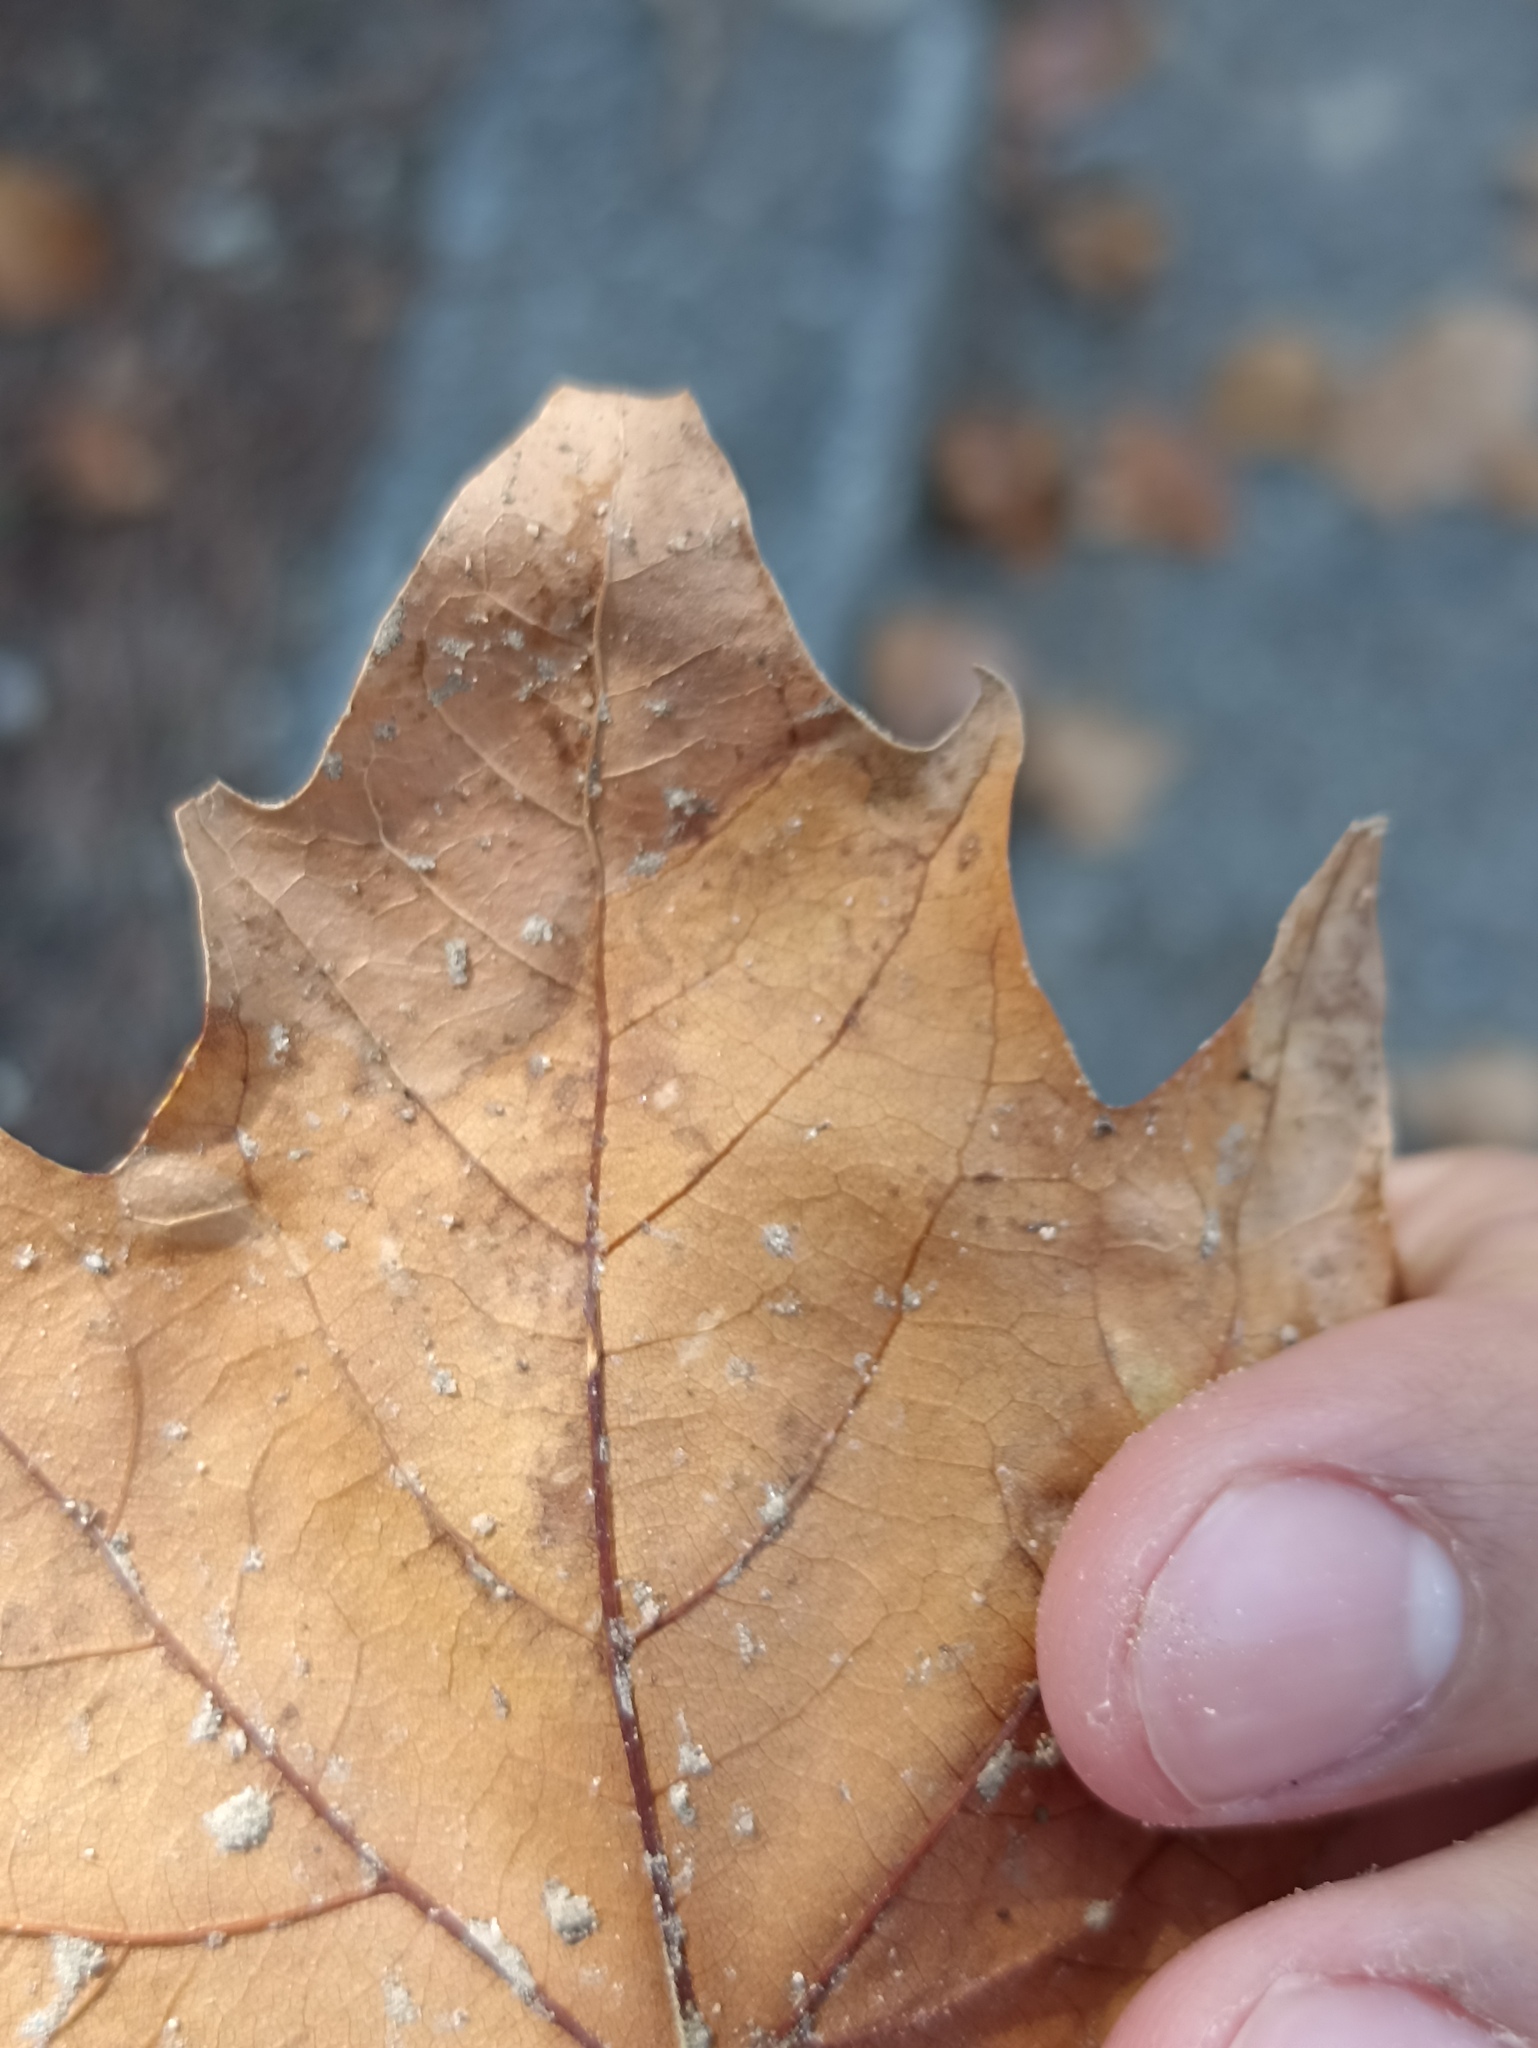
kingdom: Animalia
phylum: Arthropoda
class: Insecta
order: Lepidoptera
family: Nepticulidae
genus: Acalyptris
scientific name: Acalyptris platani
